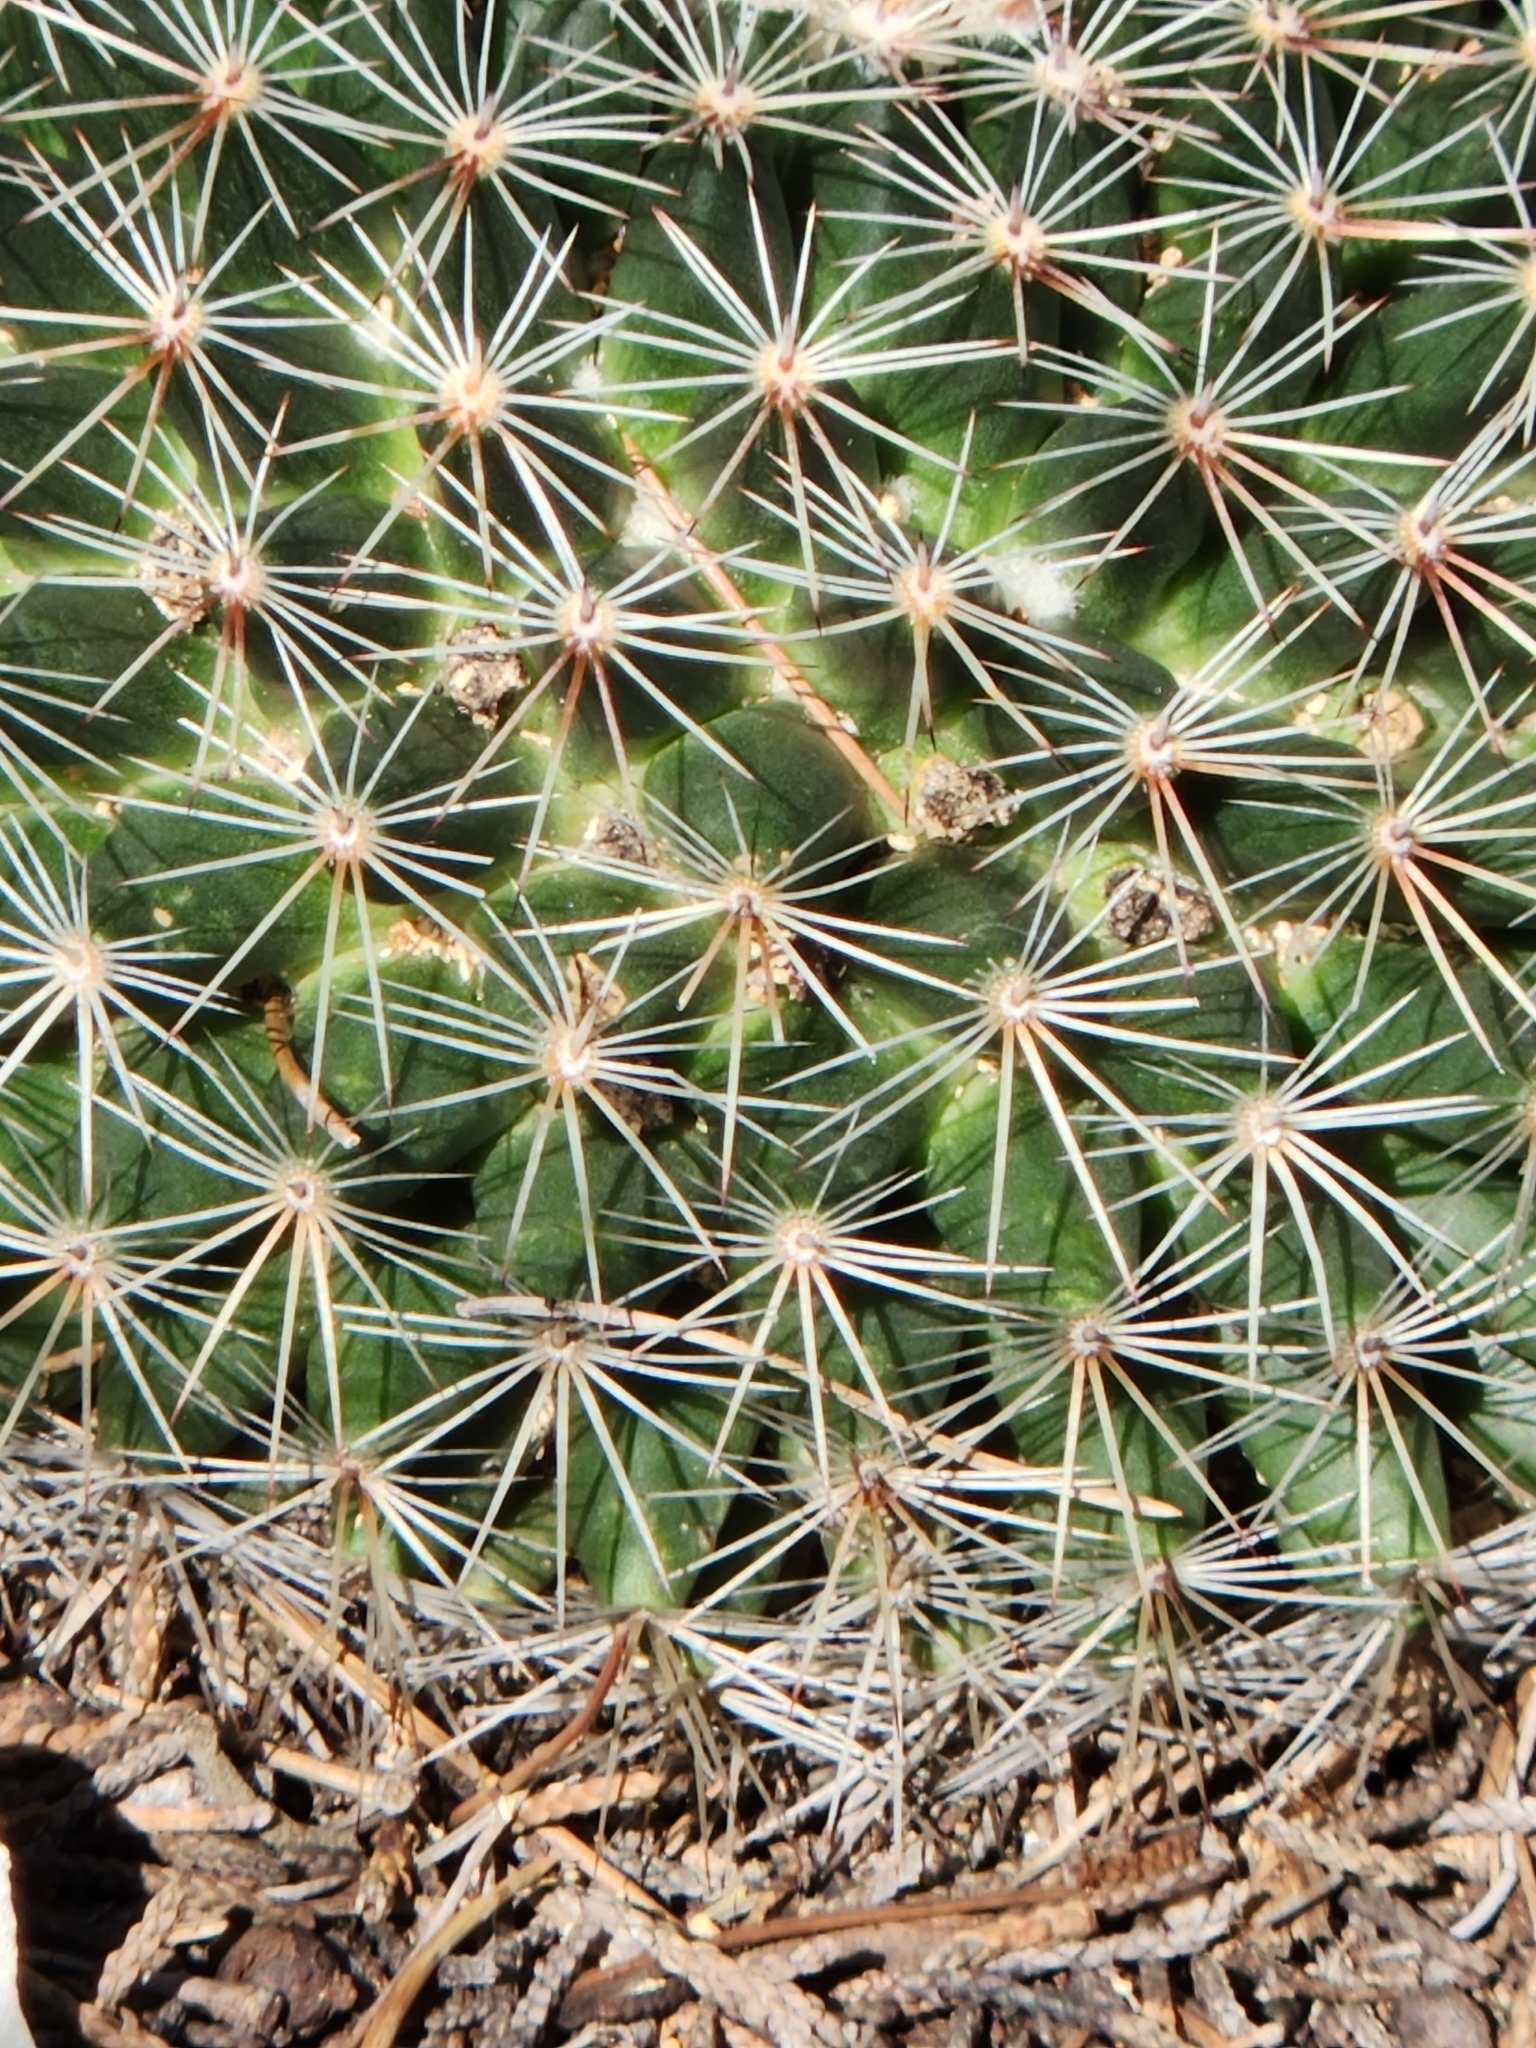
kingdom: Plantae
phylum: Tracheophyta
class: Magnoliopsida
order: Caryophyllales
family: Cactaceae
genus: Mammillaria
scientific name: Mammillaria heyderi
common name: Little nipple cactus
